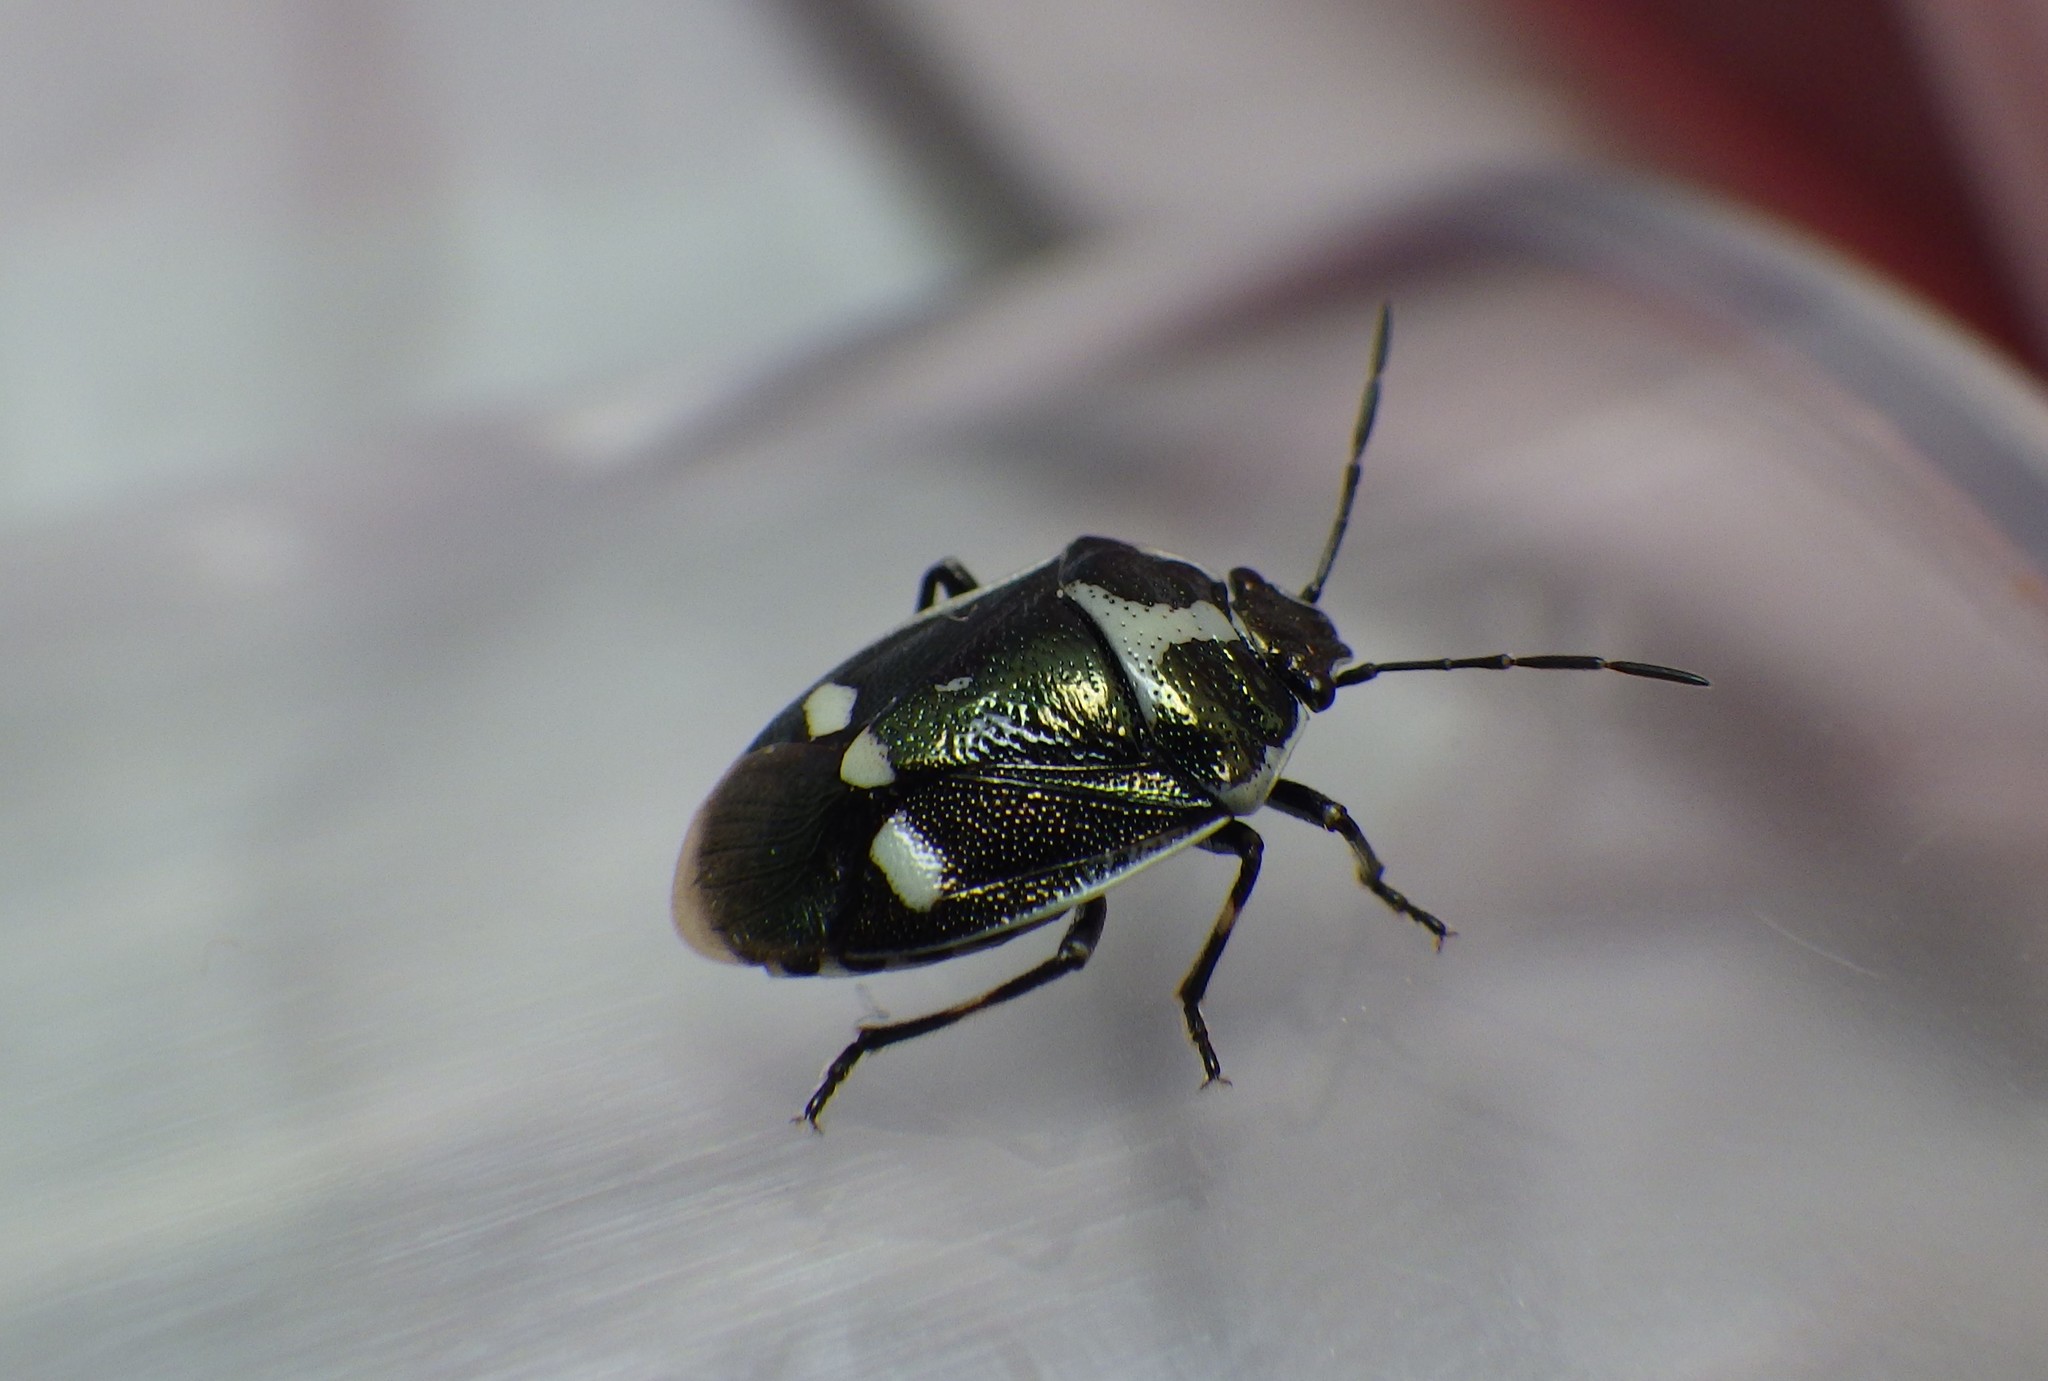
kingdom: Animalia
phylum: Arthropoda
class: Insecta
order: Hemiptera
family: Pentatomidae
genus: Eurydema
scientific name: Eurydema oleracea
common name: Cabbage bug
